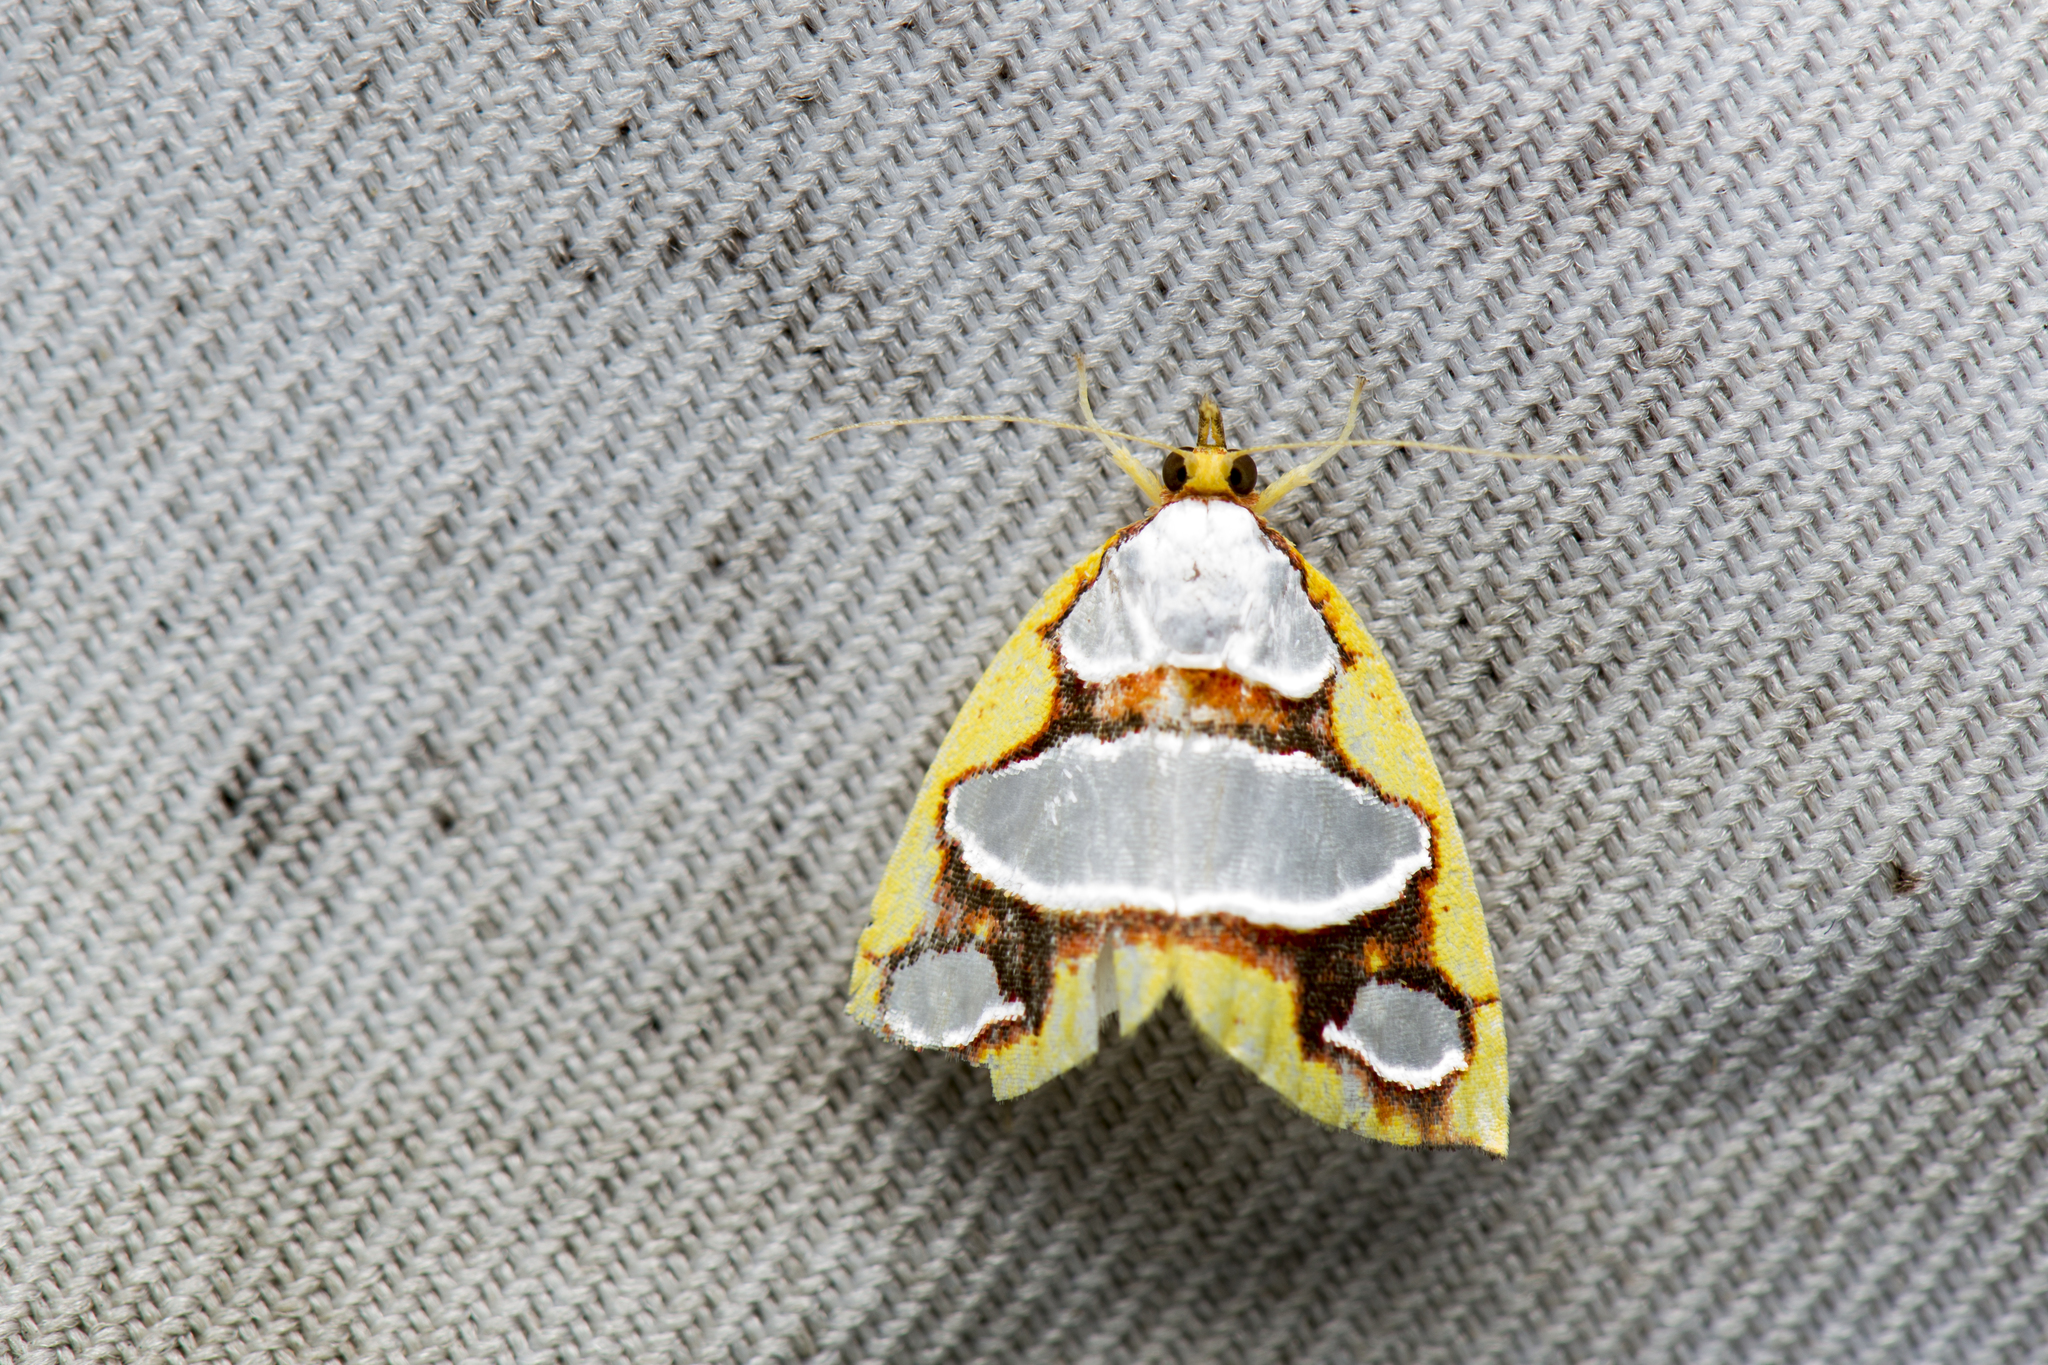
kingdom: Animalia
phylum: Arthropoda
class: Insecta
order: Lepidoptera
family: Nolidae
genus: Titulcia
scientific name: Titulcia eximia
